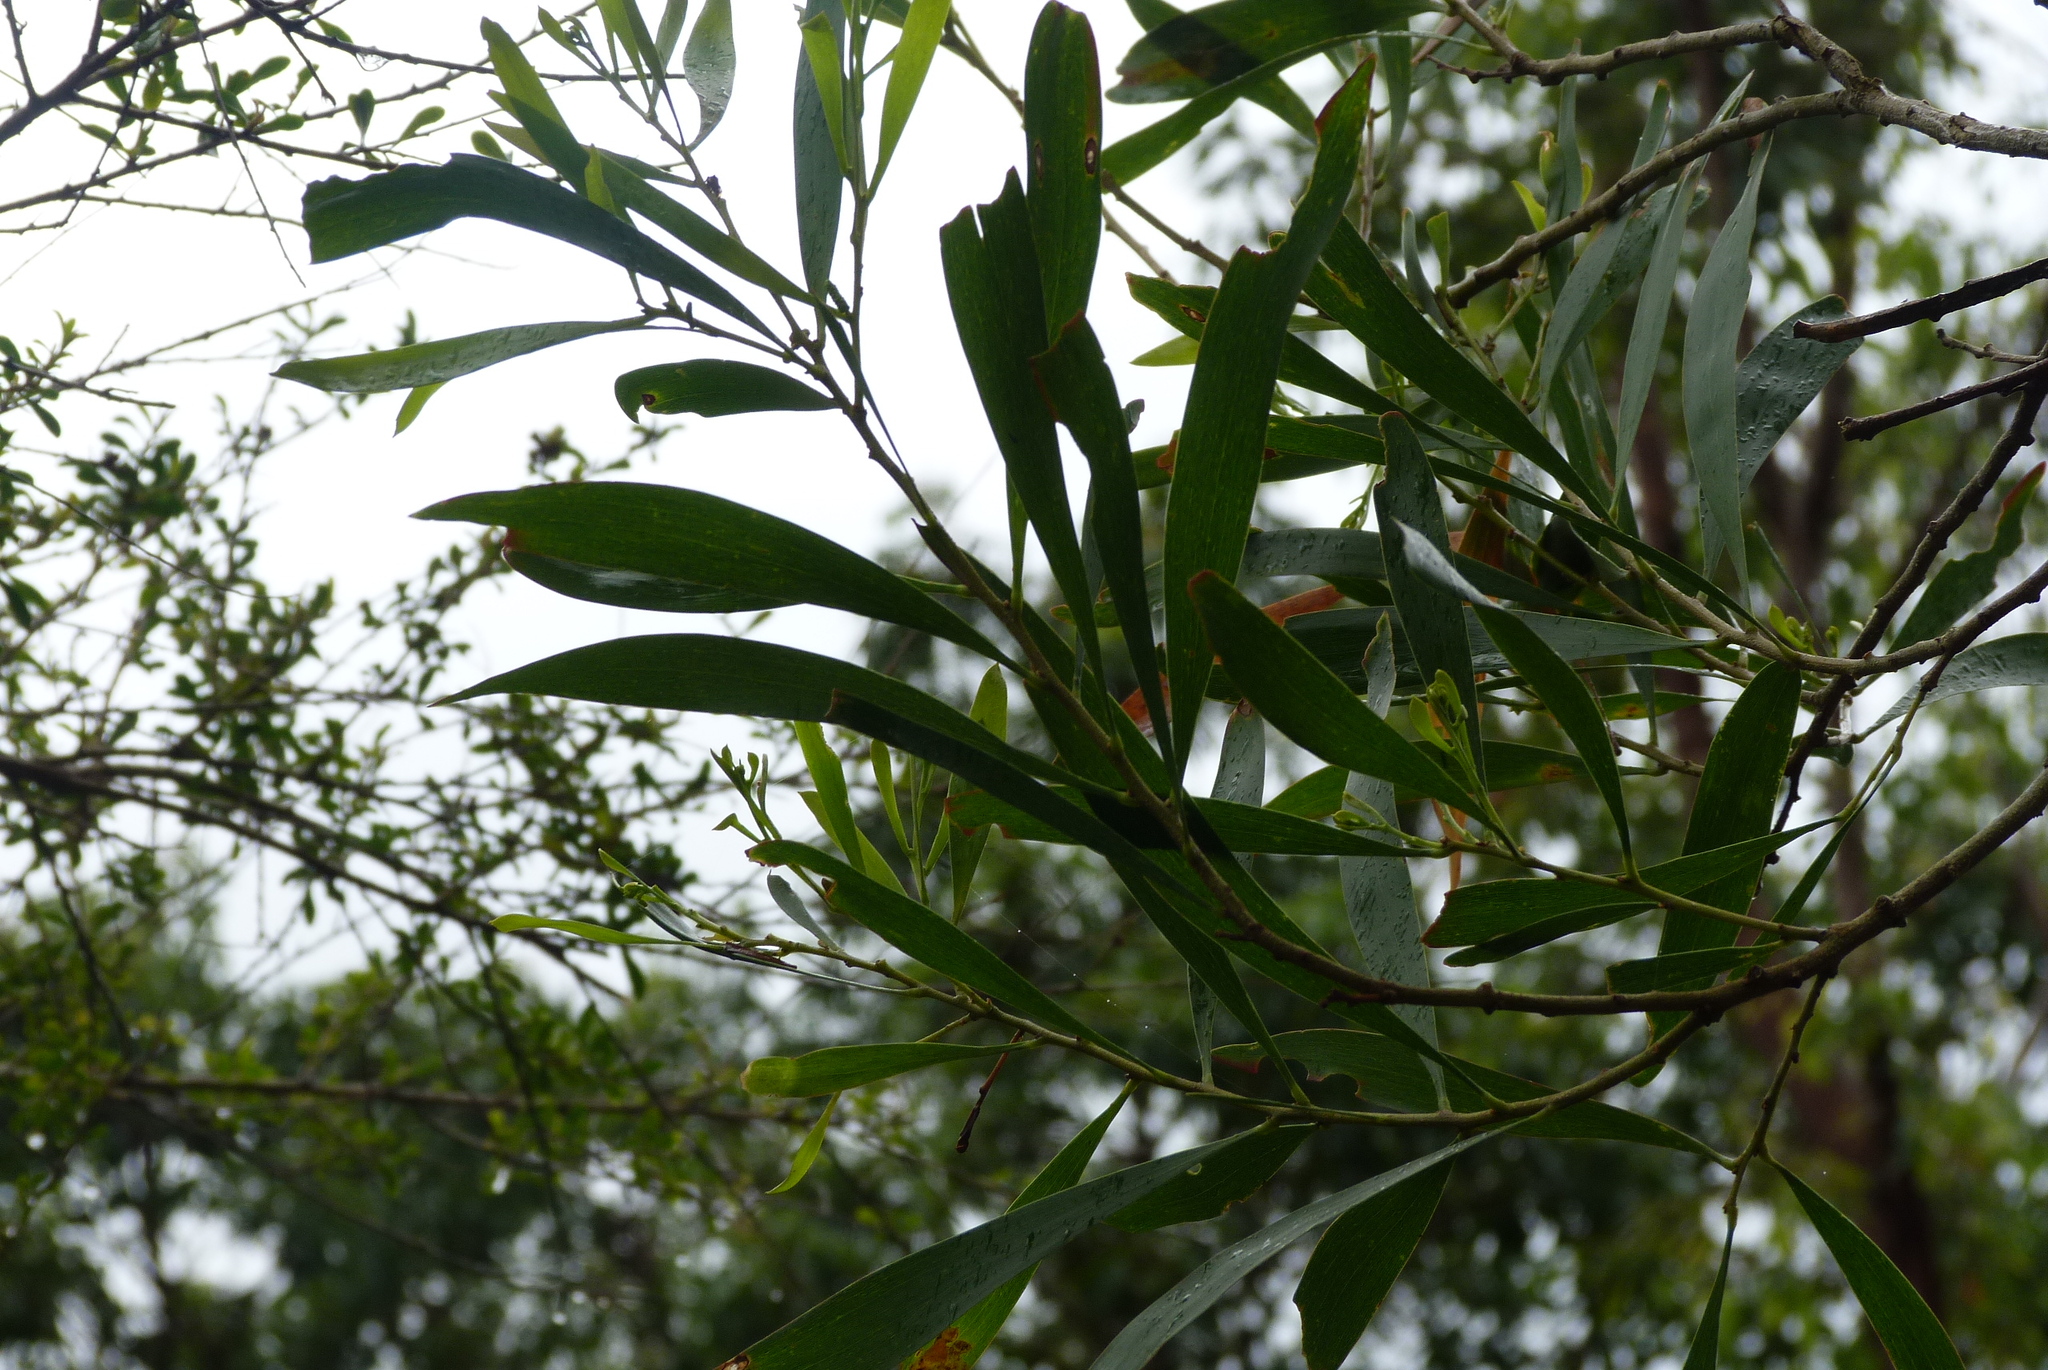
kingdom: Plantae
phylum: Tracheophyta
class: Magnoliopsida
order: Fabales
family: Fabaceae
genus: Acacia
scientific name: Acacia melanoxylon
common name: Blackwood
